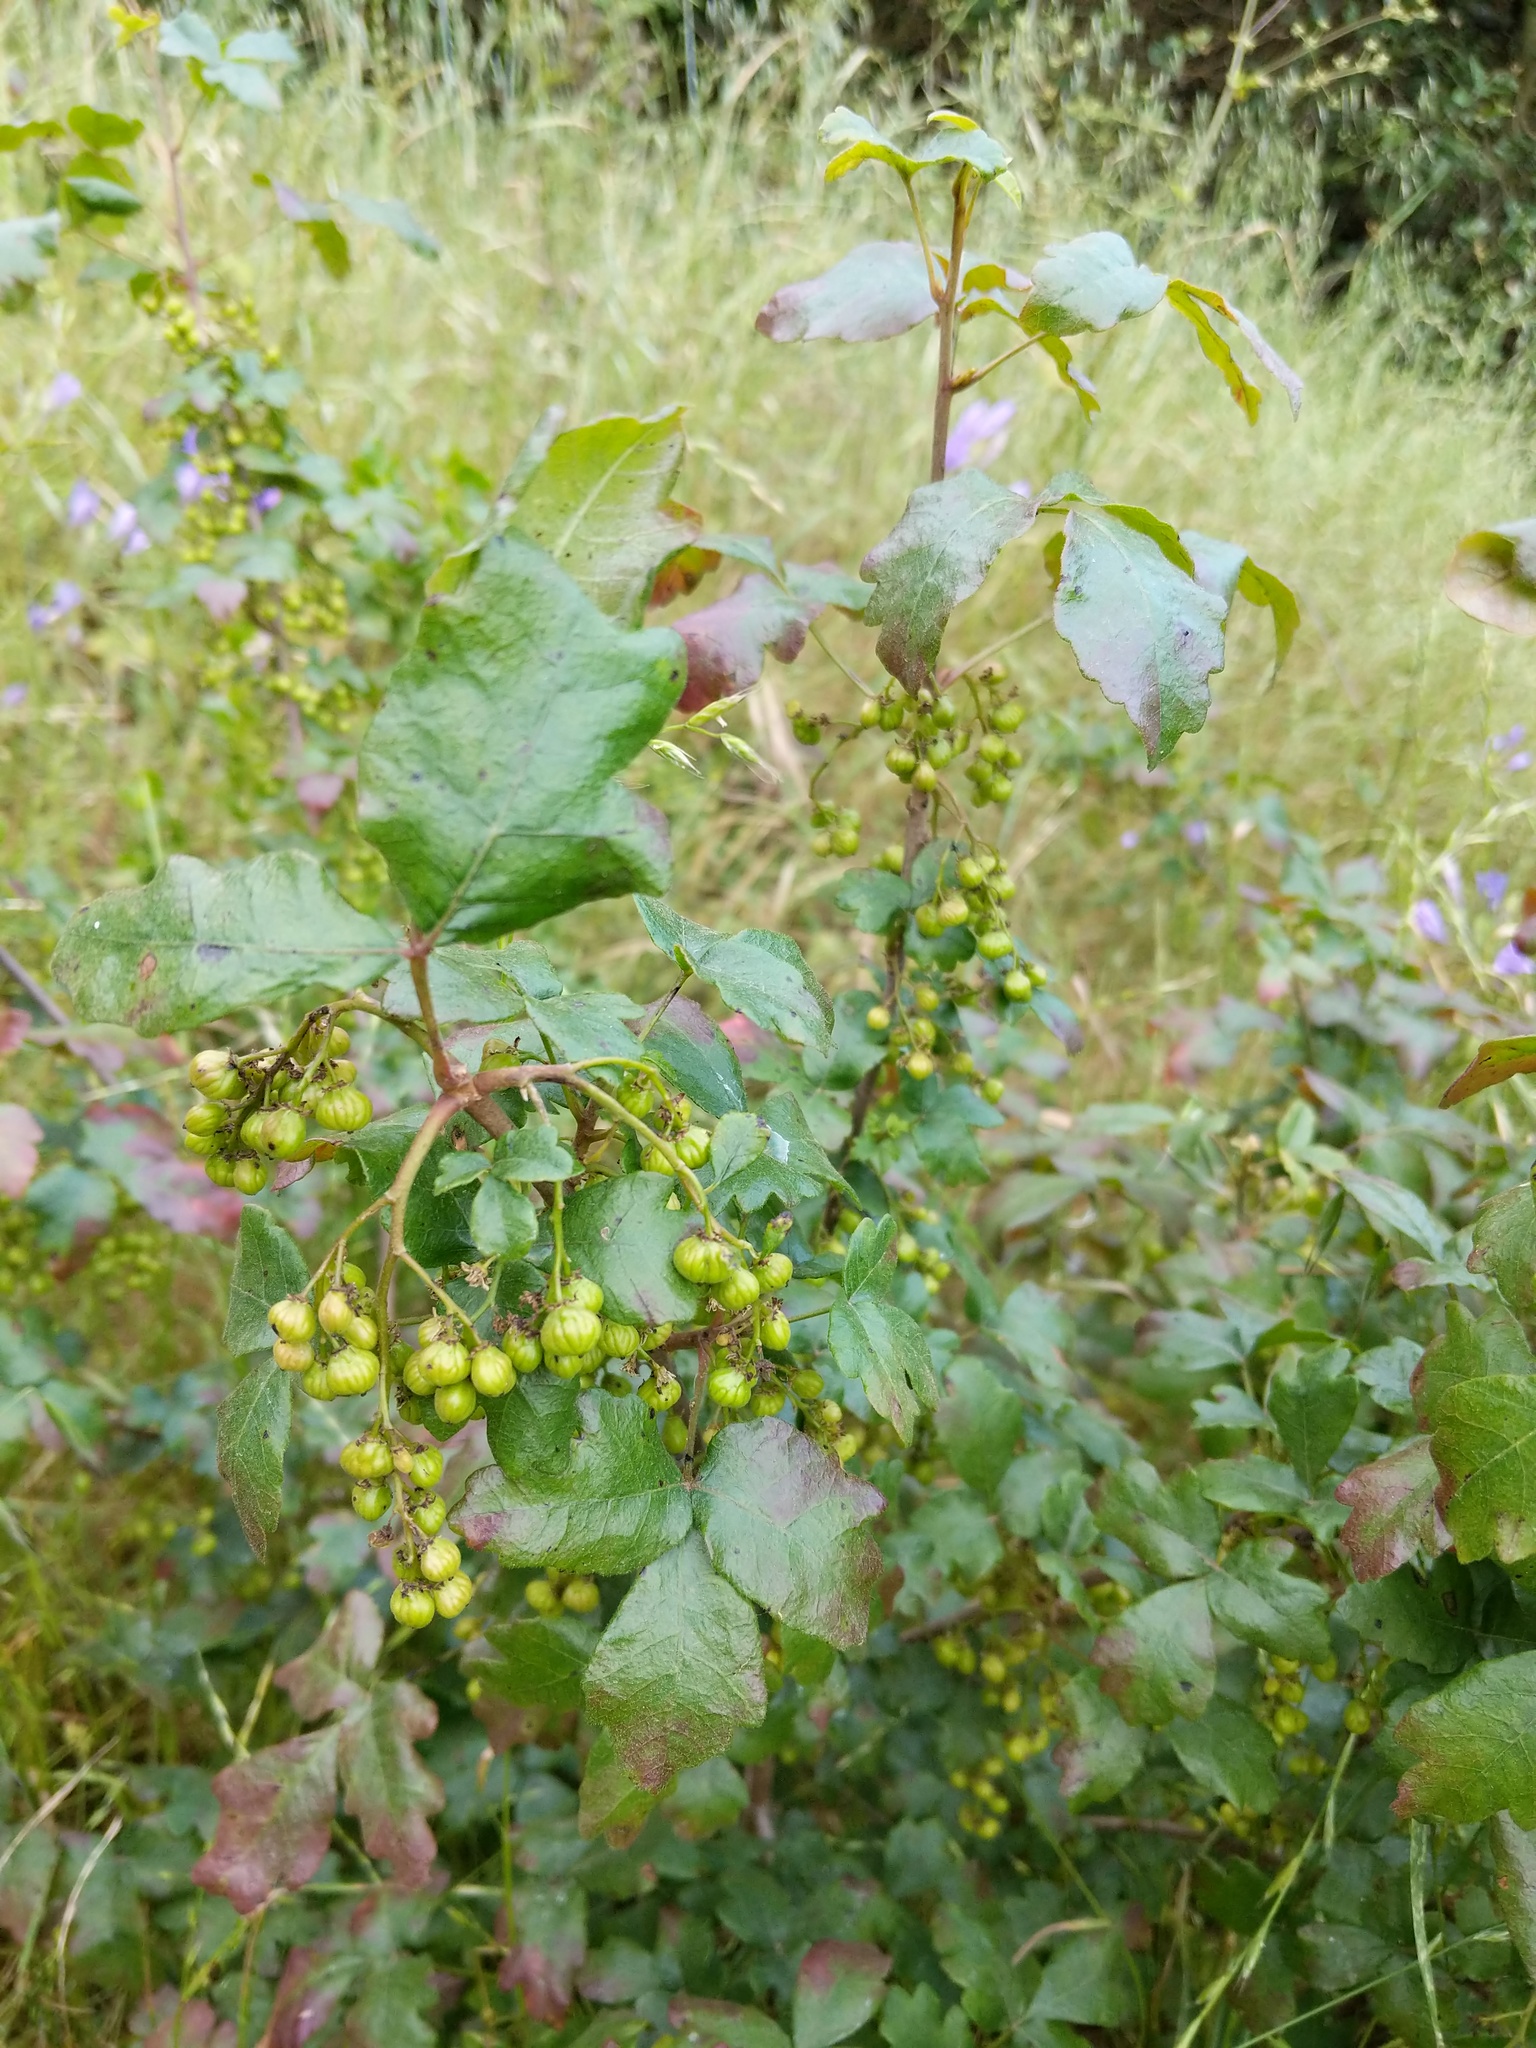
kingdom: Plantae
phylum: Tracheophyta
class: Magnoliopsida
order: Sapindales
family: Anacardiaceae
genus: Toxicodendron
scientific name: Toxicodendron diversilobum
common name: Pacific poison-oak
